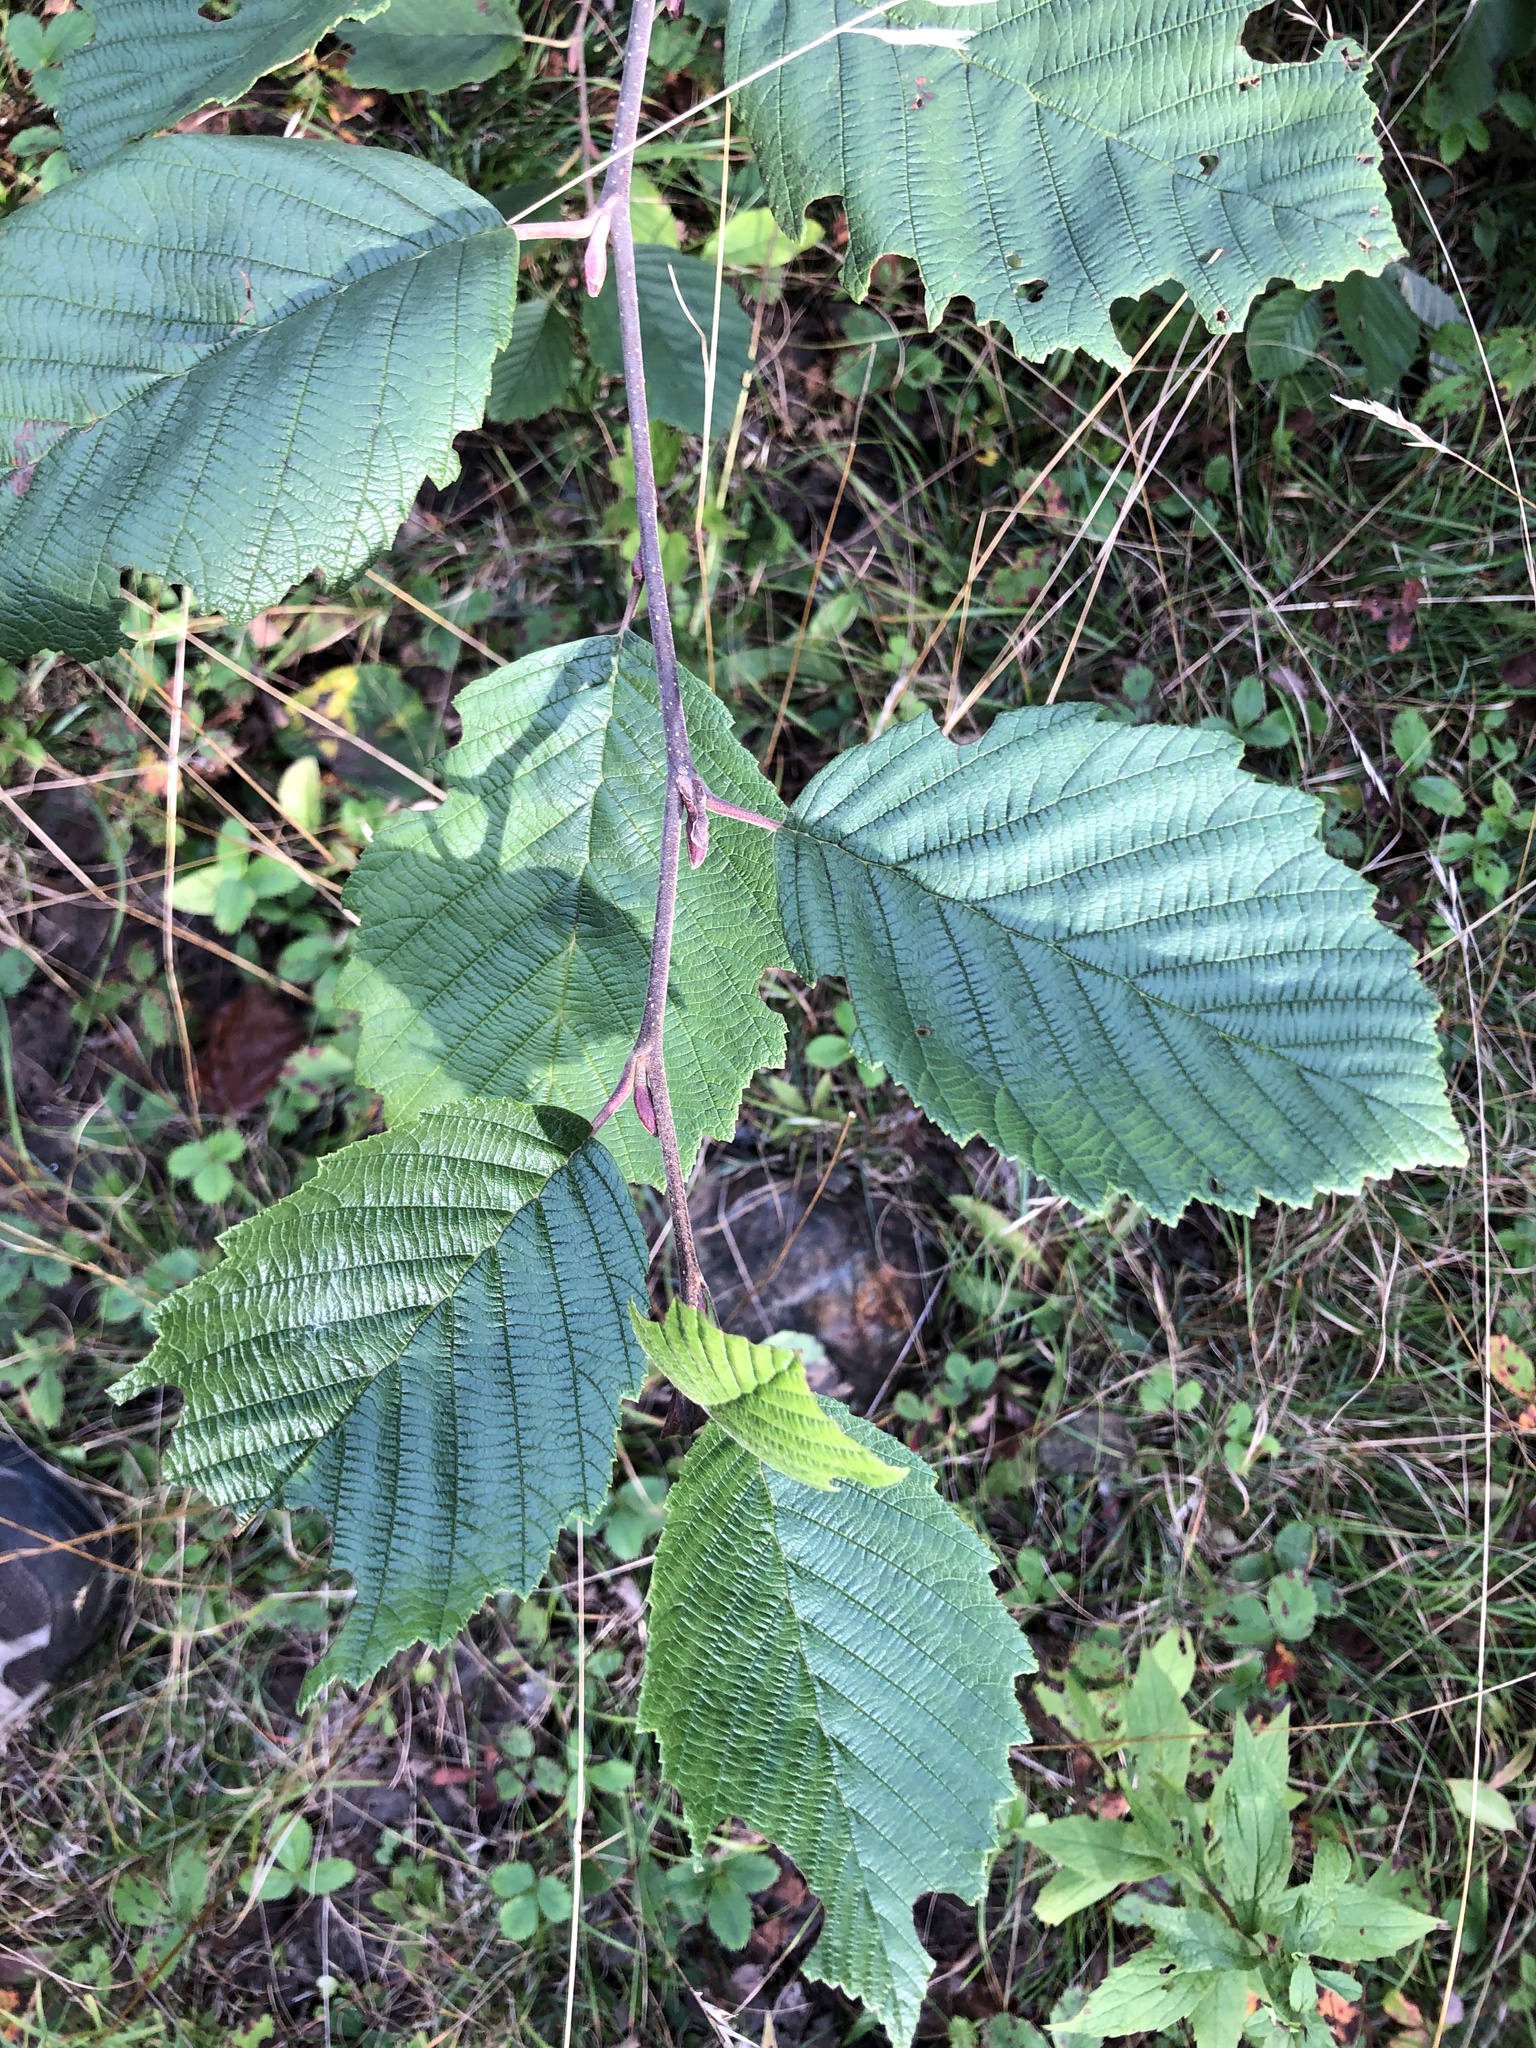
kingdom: Plantae
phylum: Tracheophyta
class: Magnoliopsida
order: Fagales
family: Betulaceae
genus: Alnus
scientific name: Alnus incana
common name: Grey alder
